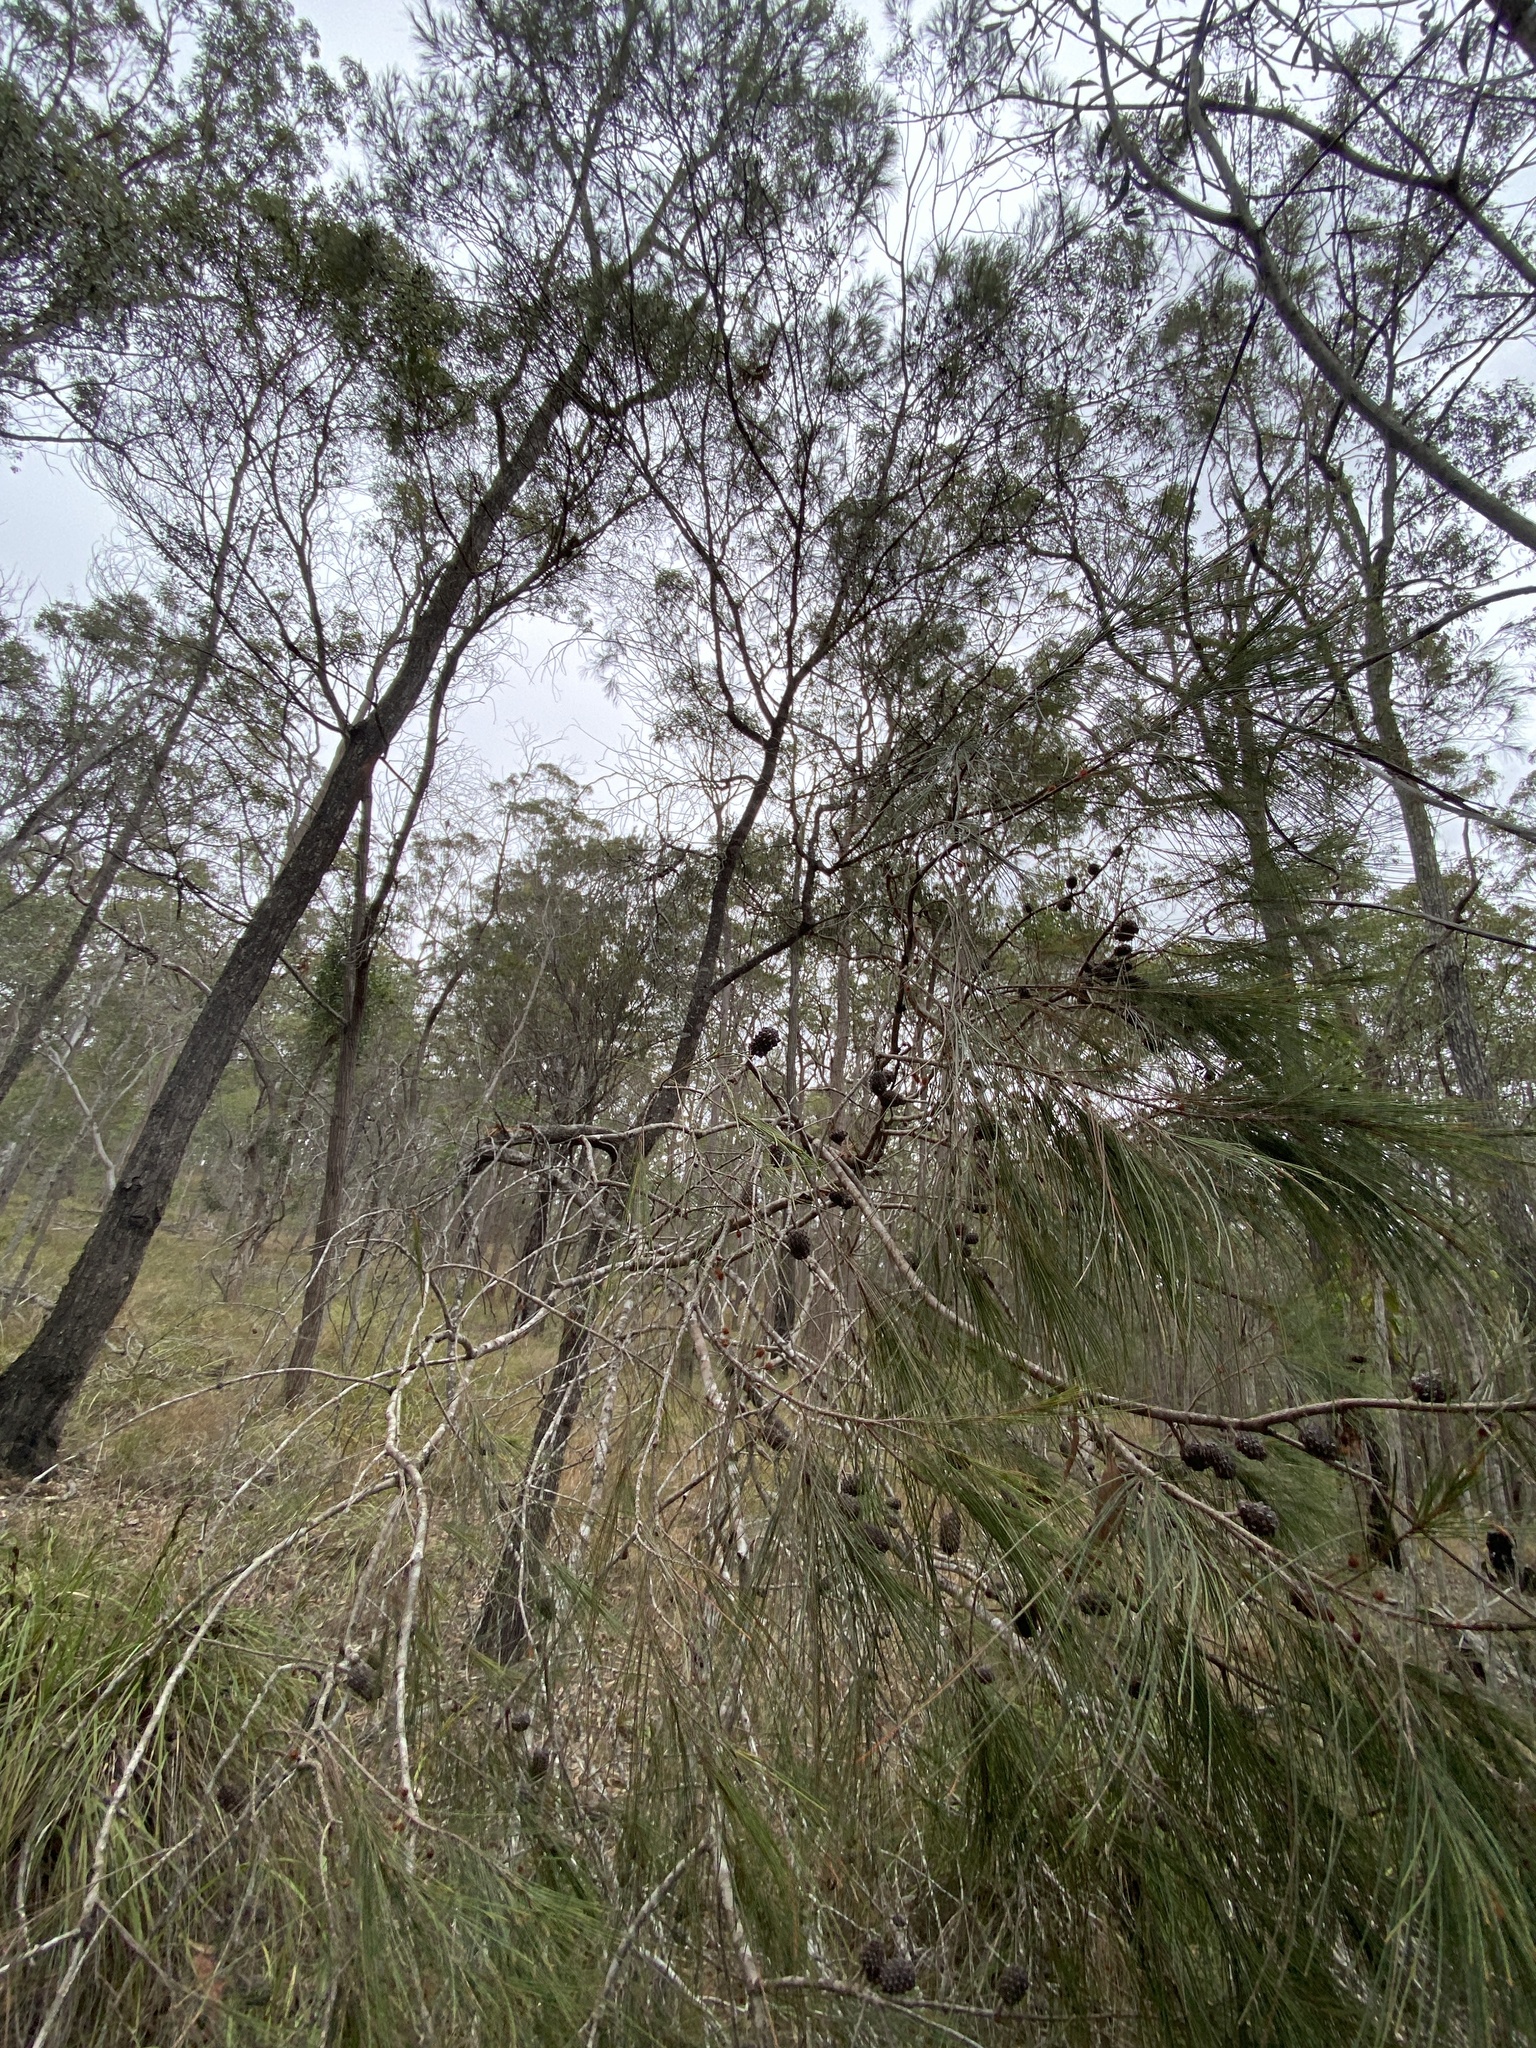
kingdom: Plantae
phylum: Tracheophyta
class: Magnoliopsida
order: Fagales
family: Casuarinaceae
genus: Allocasuarina
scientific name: Allocasuarina littoralis
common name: Black she-oak
